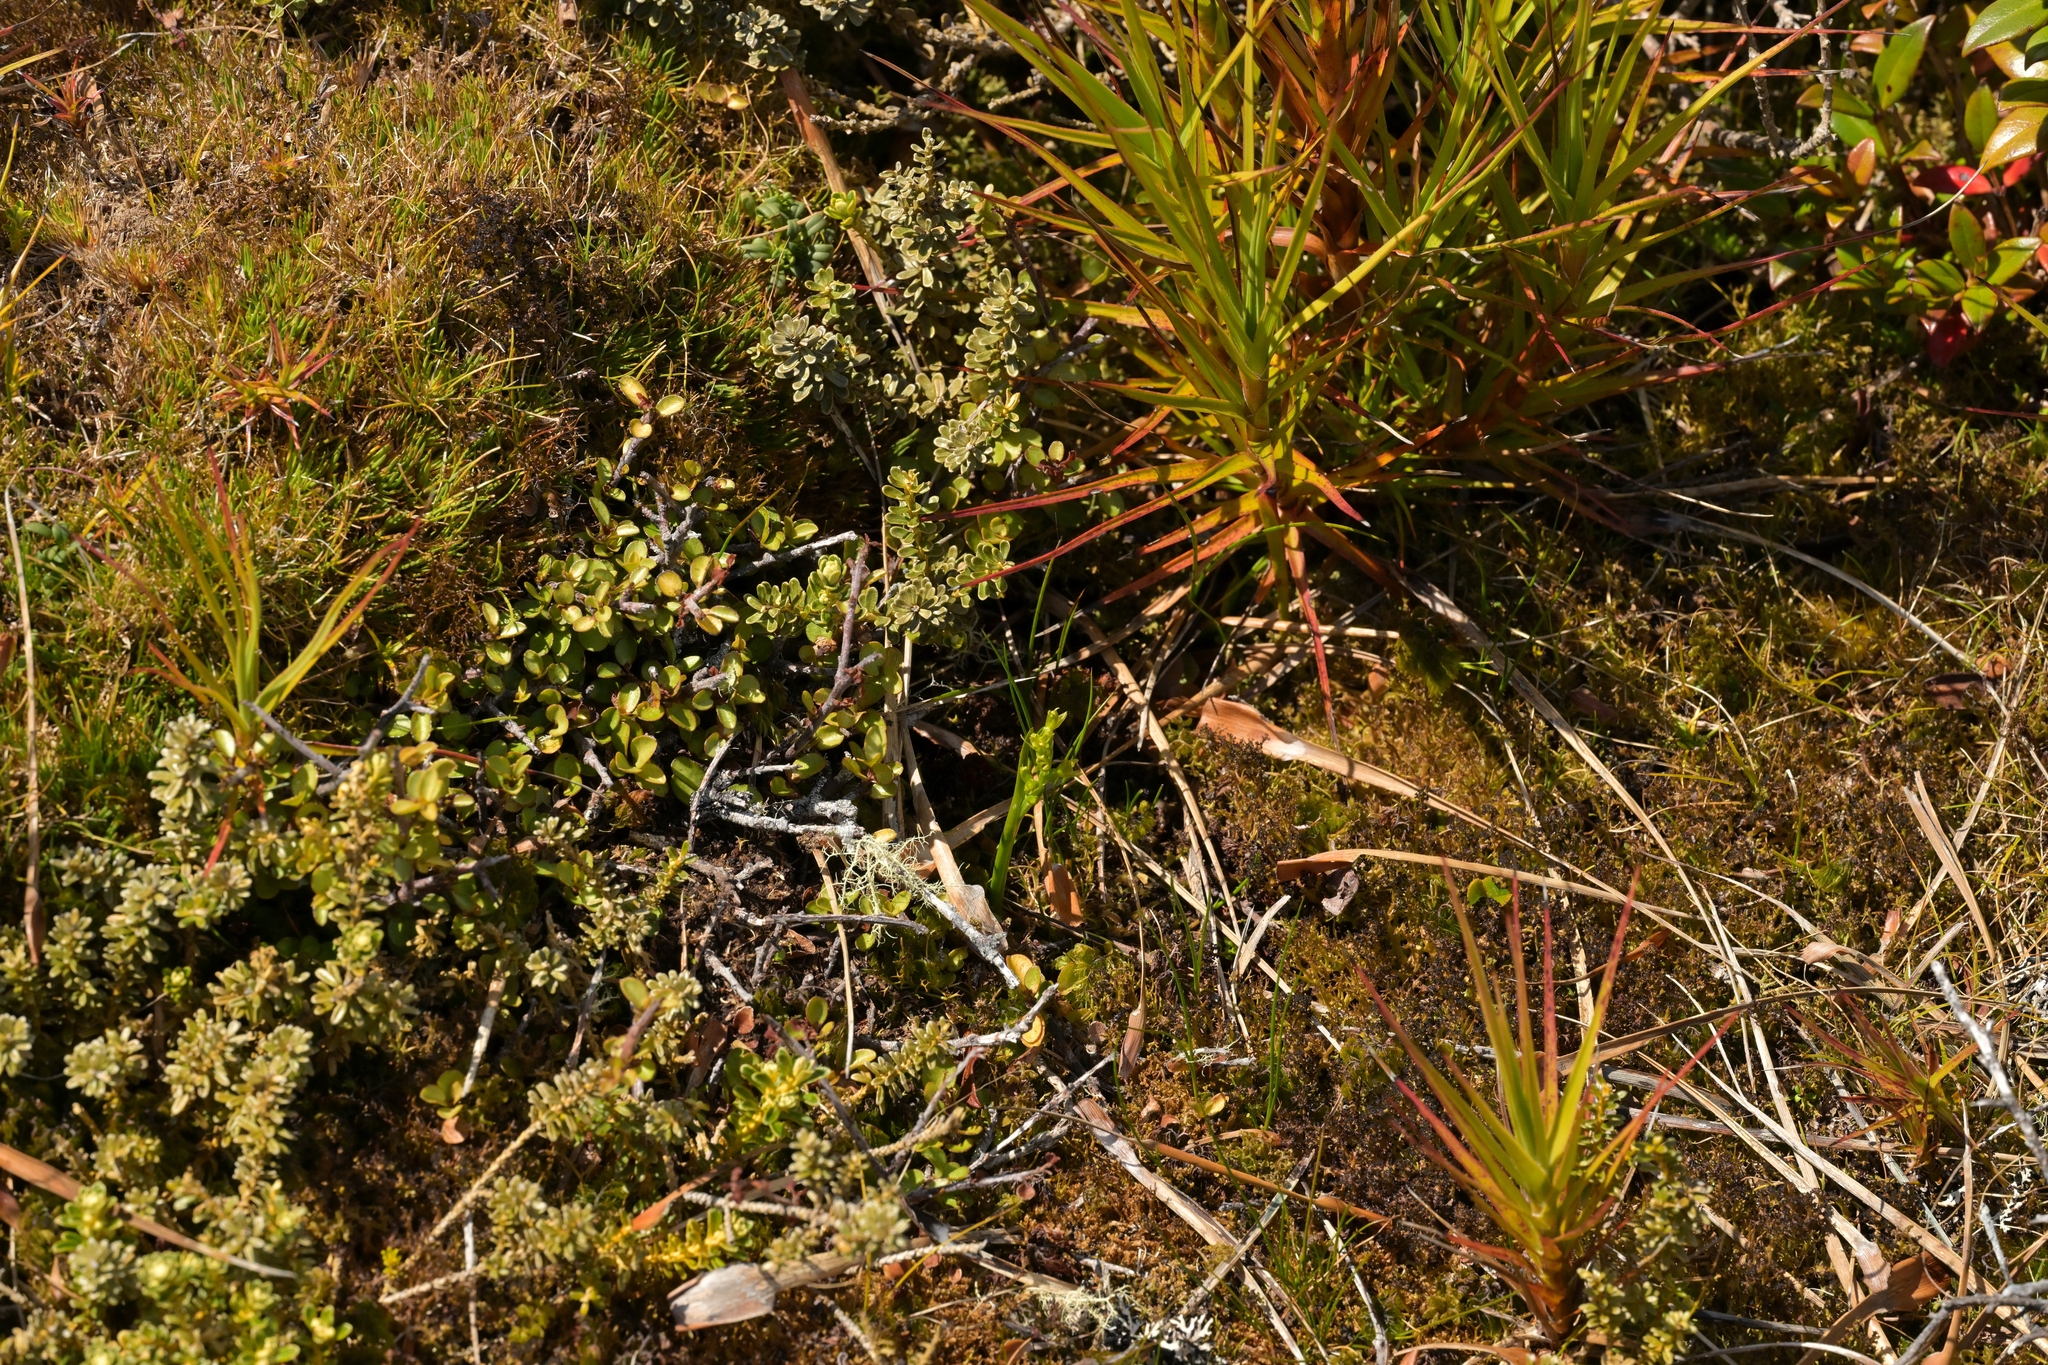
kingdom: Plantae
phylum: Tracheophyta
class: Liliopsida
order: Asparagales
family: Orchidaceae
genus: Prasophyllum
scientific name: Prasophyllum colensoi
